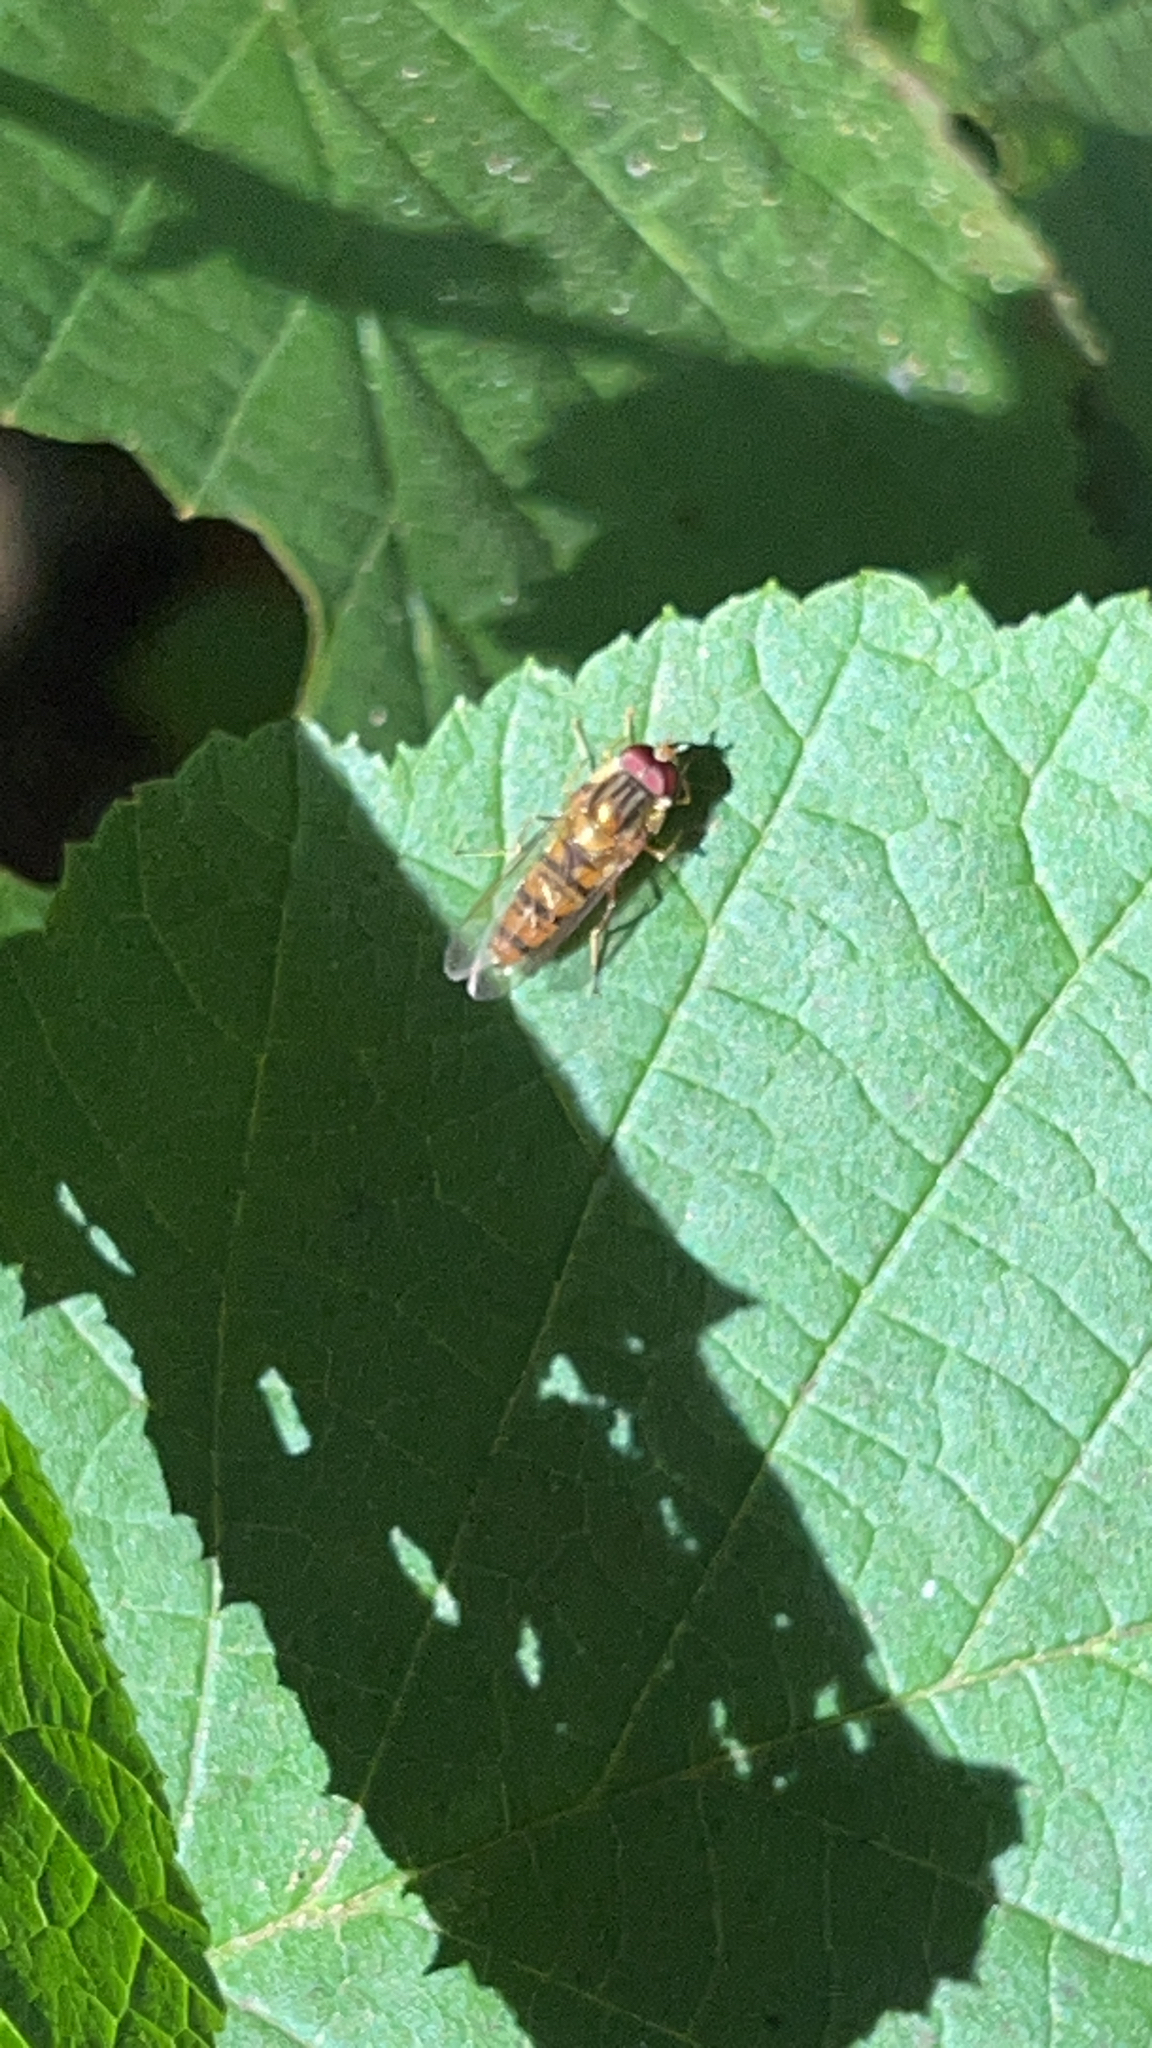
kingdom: Animalia
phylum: Arthropoda
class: Insecta
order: Diptera
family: Syrphidae
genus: Episyrphus
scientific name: Episyrphus balteatus
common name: Marmalade hoverfly
